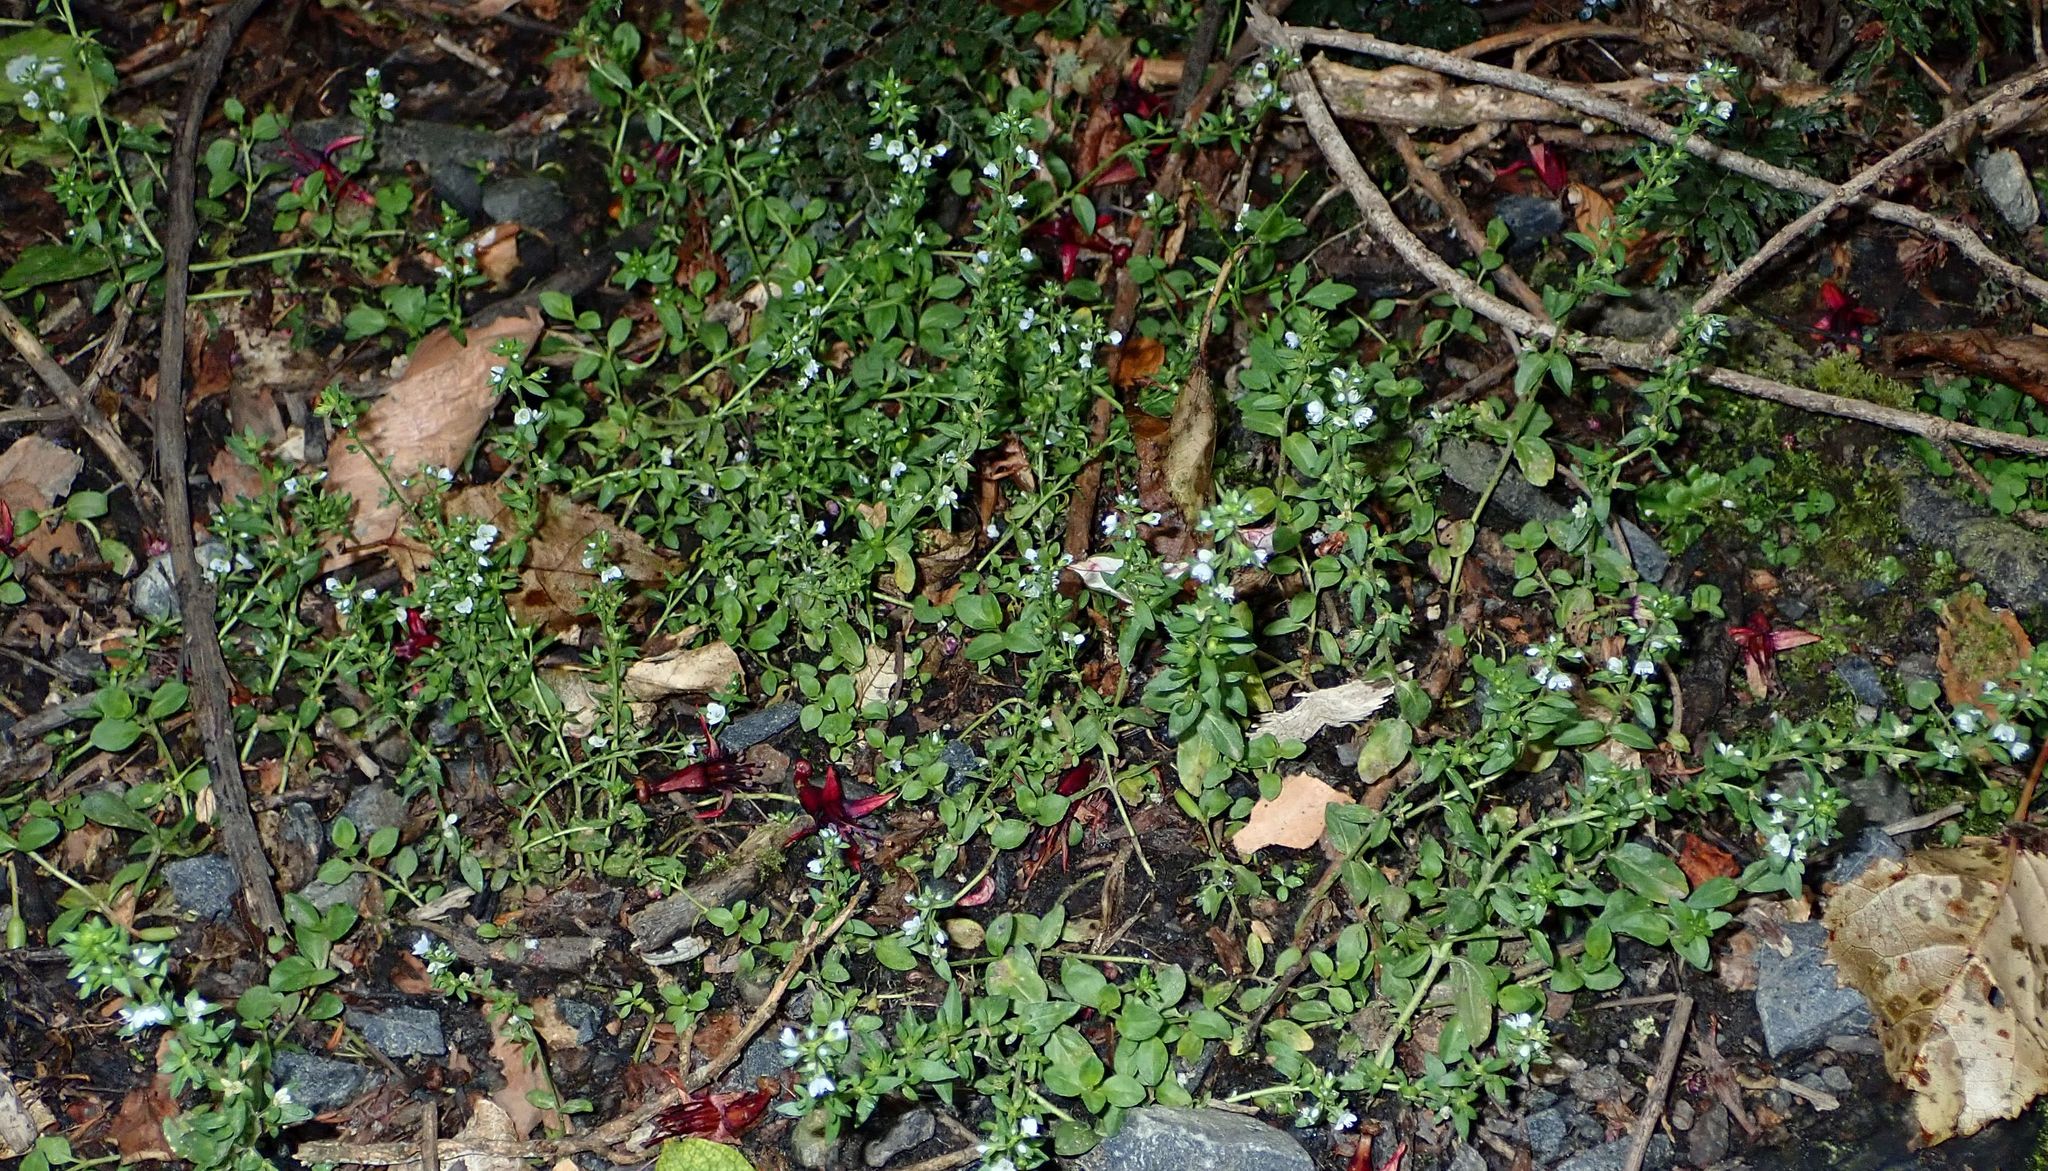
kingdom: Plantae
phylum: Tracheophyta
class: Magnoliopsida
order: Lamiales
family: Plantaginaceae
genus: Veronica
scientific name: Veronica serpyllifolia
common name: Thyme-leaved speedwell
